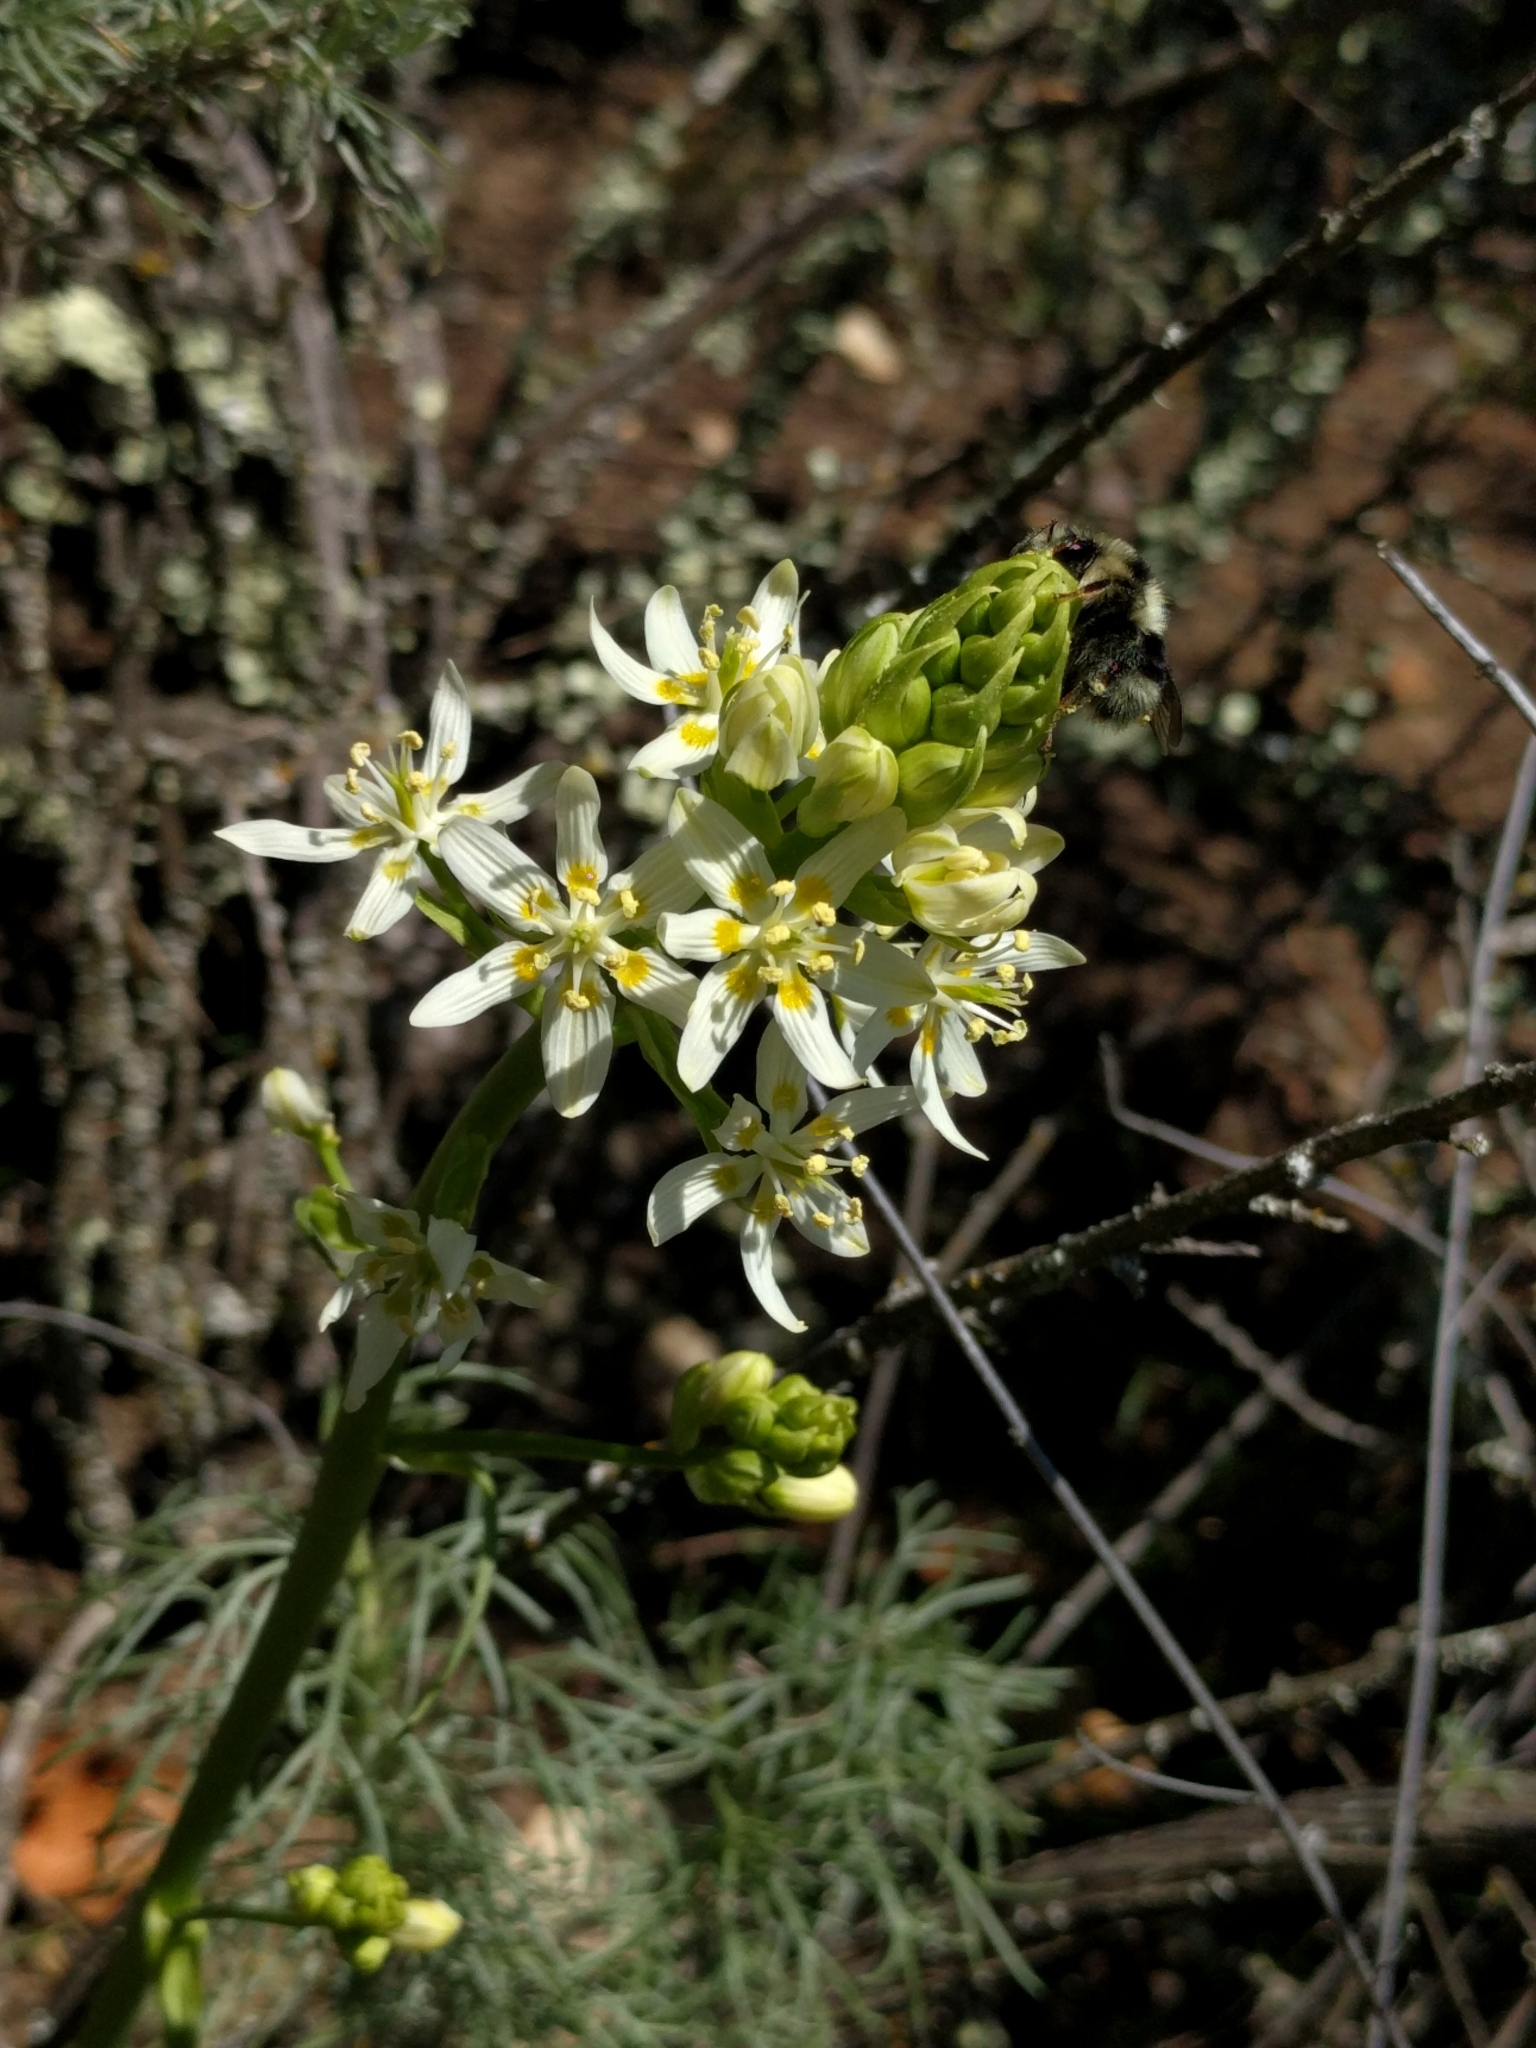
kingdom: Plantae
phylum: Tracheophyta
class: Liliopsida
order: Liliales
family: Melanthiaceae
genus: Toxicoscordion
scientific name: Toxicoscordion fremontii
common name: Fremont's death camas
